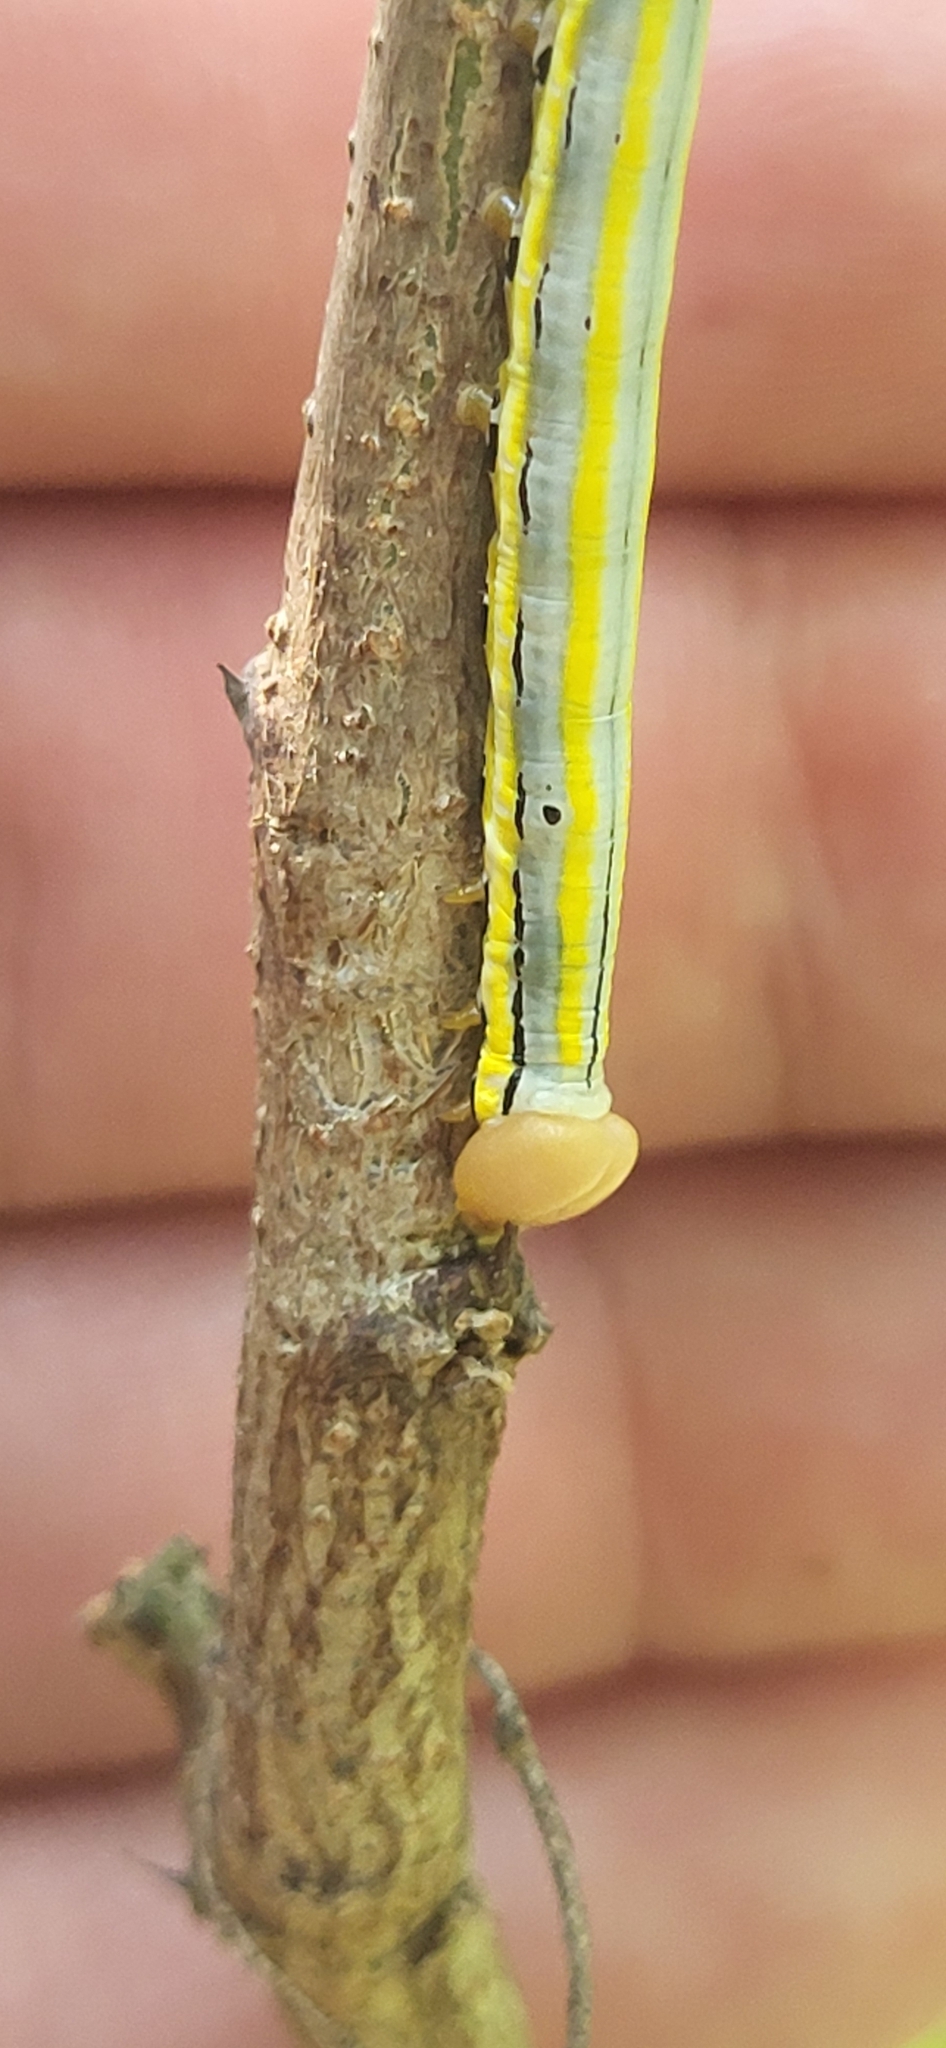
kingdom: Animalia
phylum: Arthropoda
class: Insecta
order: Lepidoptera
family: Notodontidae
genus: Dasylophia
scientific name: Dasylophia anguina
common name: Black-spotted prominent
